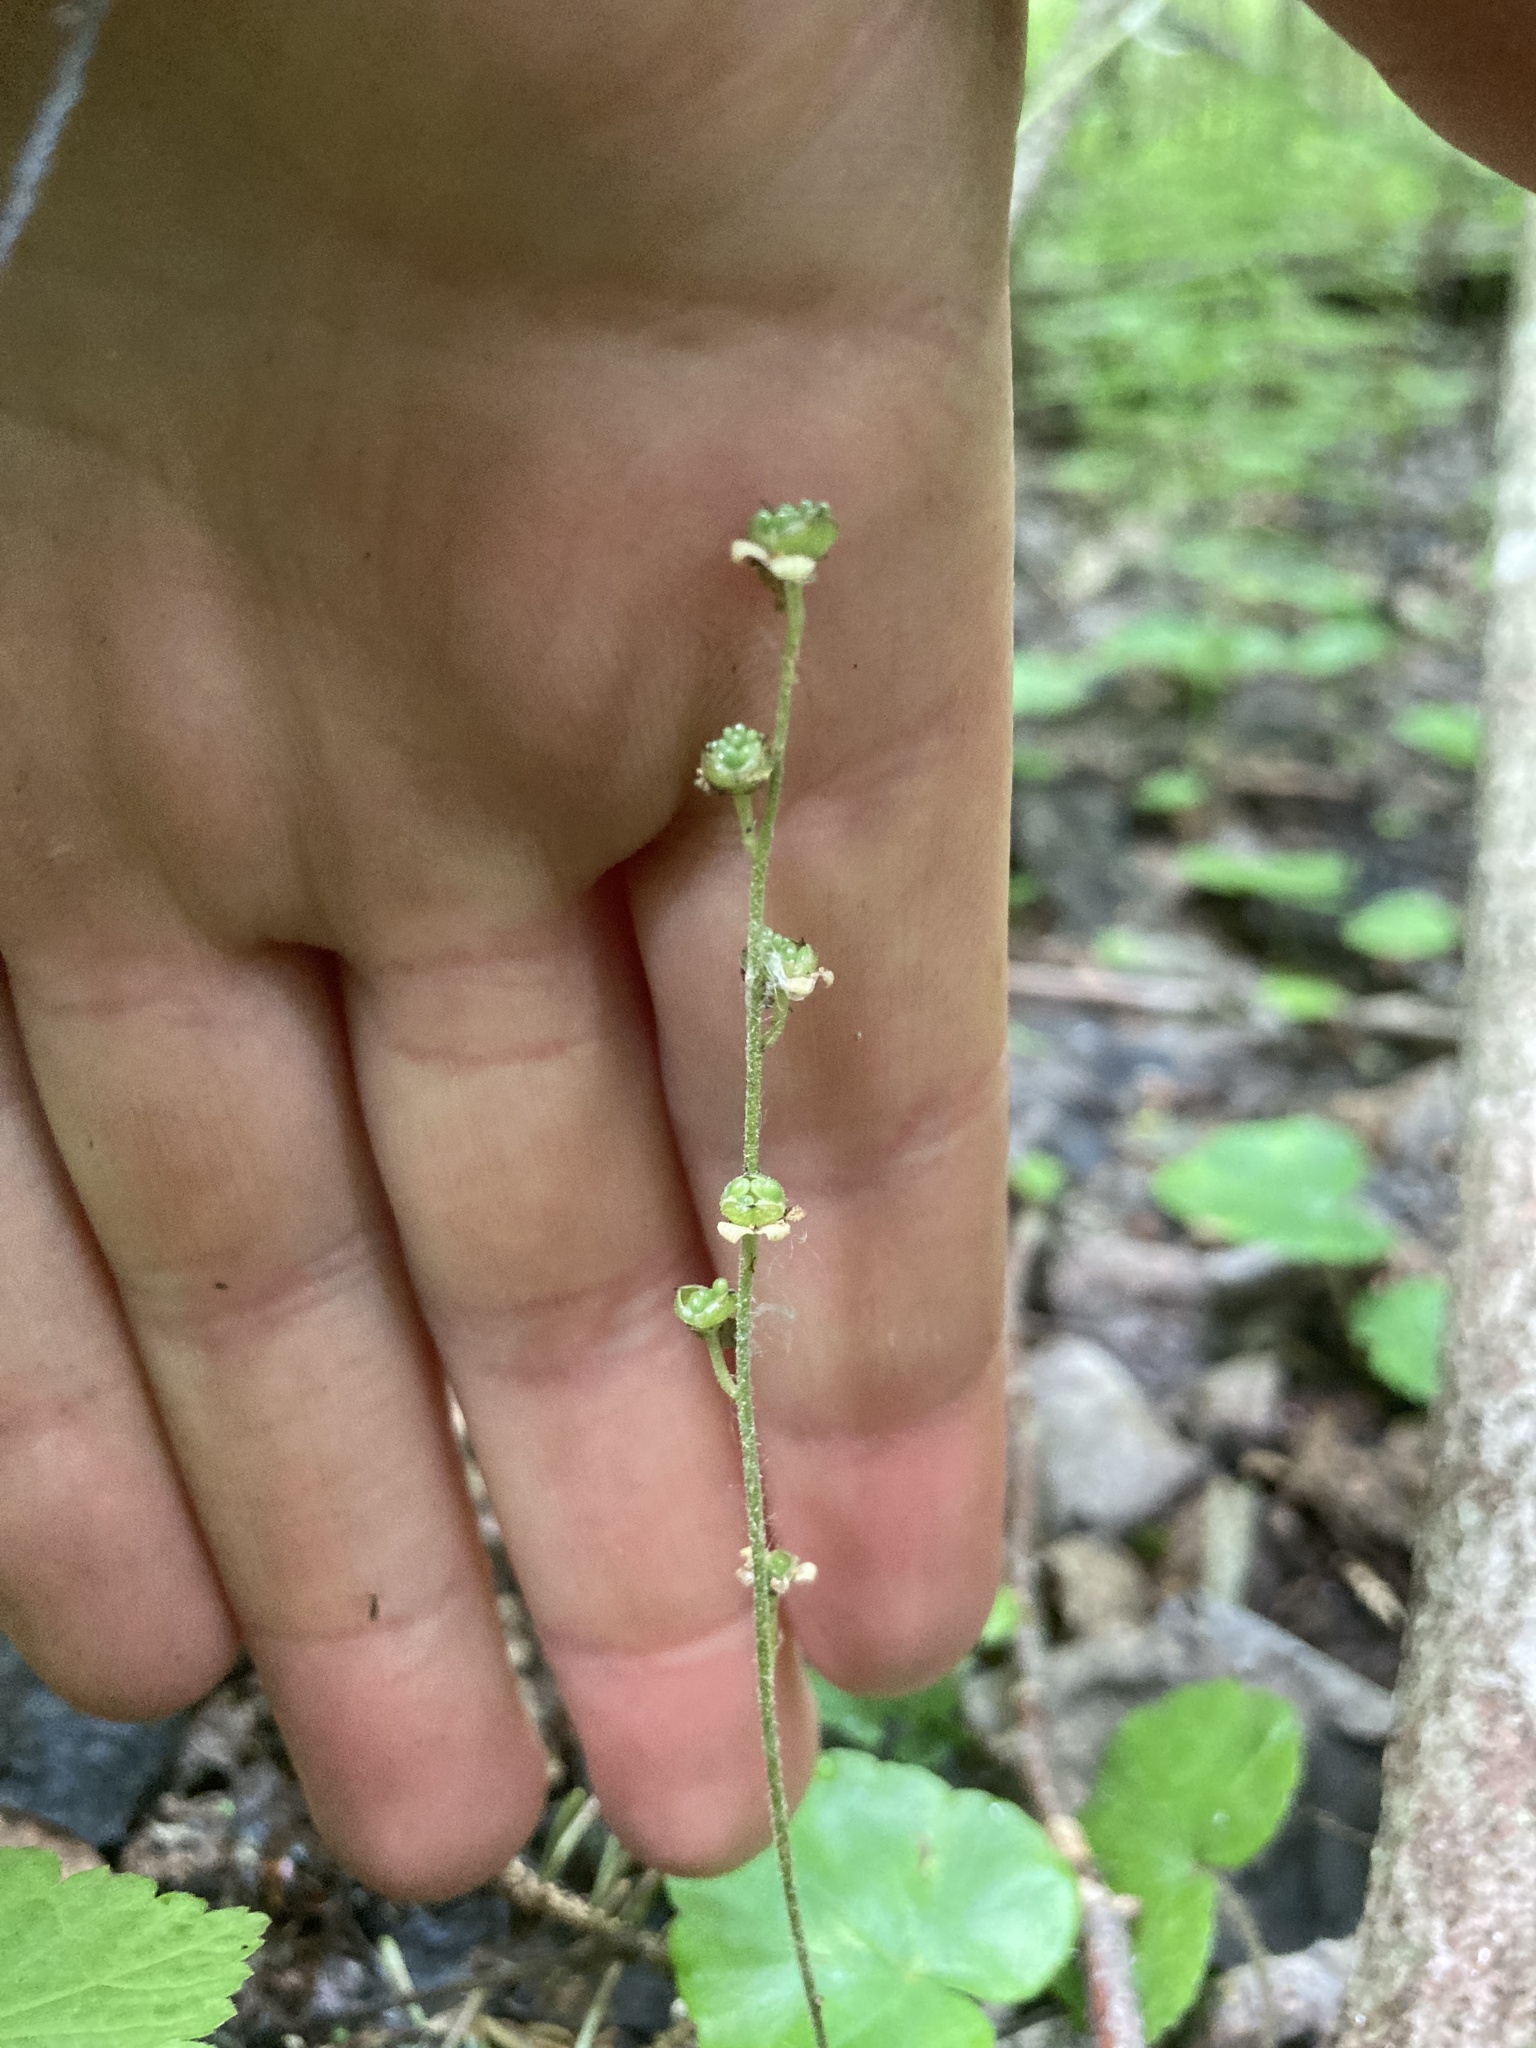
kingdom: Plantae
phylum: Tracheophyta
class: Magnoliopsida
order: Saxifragales
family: Saxifragaceae
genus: Mitella
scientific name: Mitella nuda
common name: Bare-stemmed bishop's-cap
